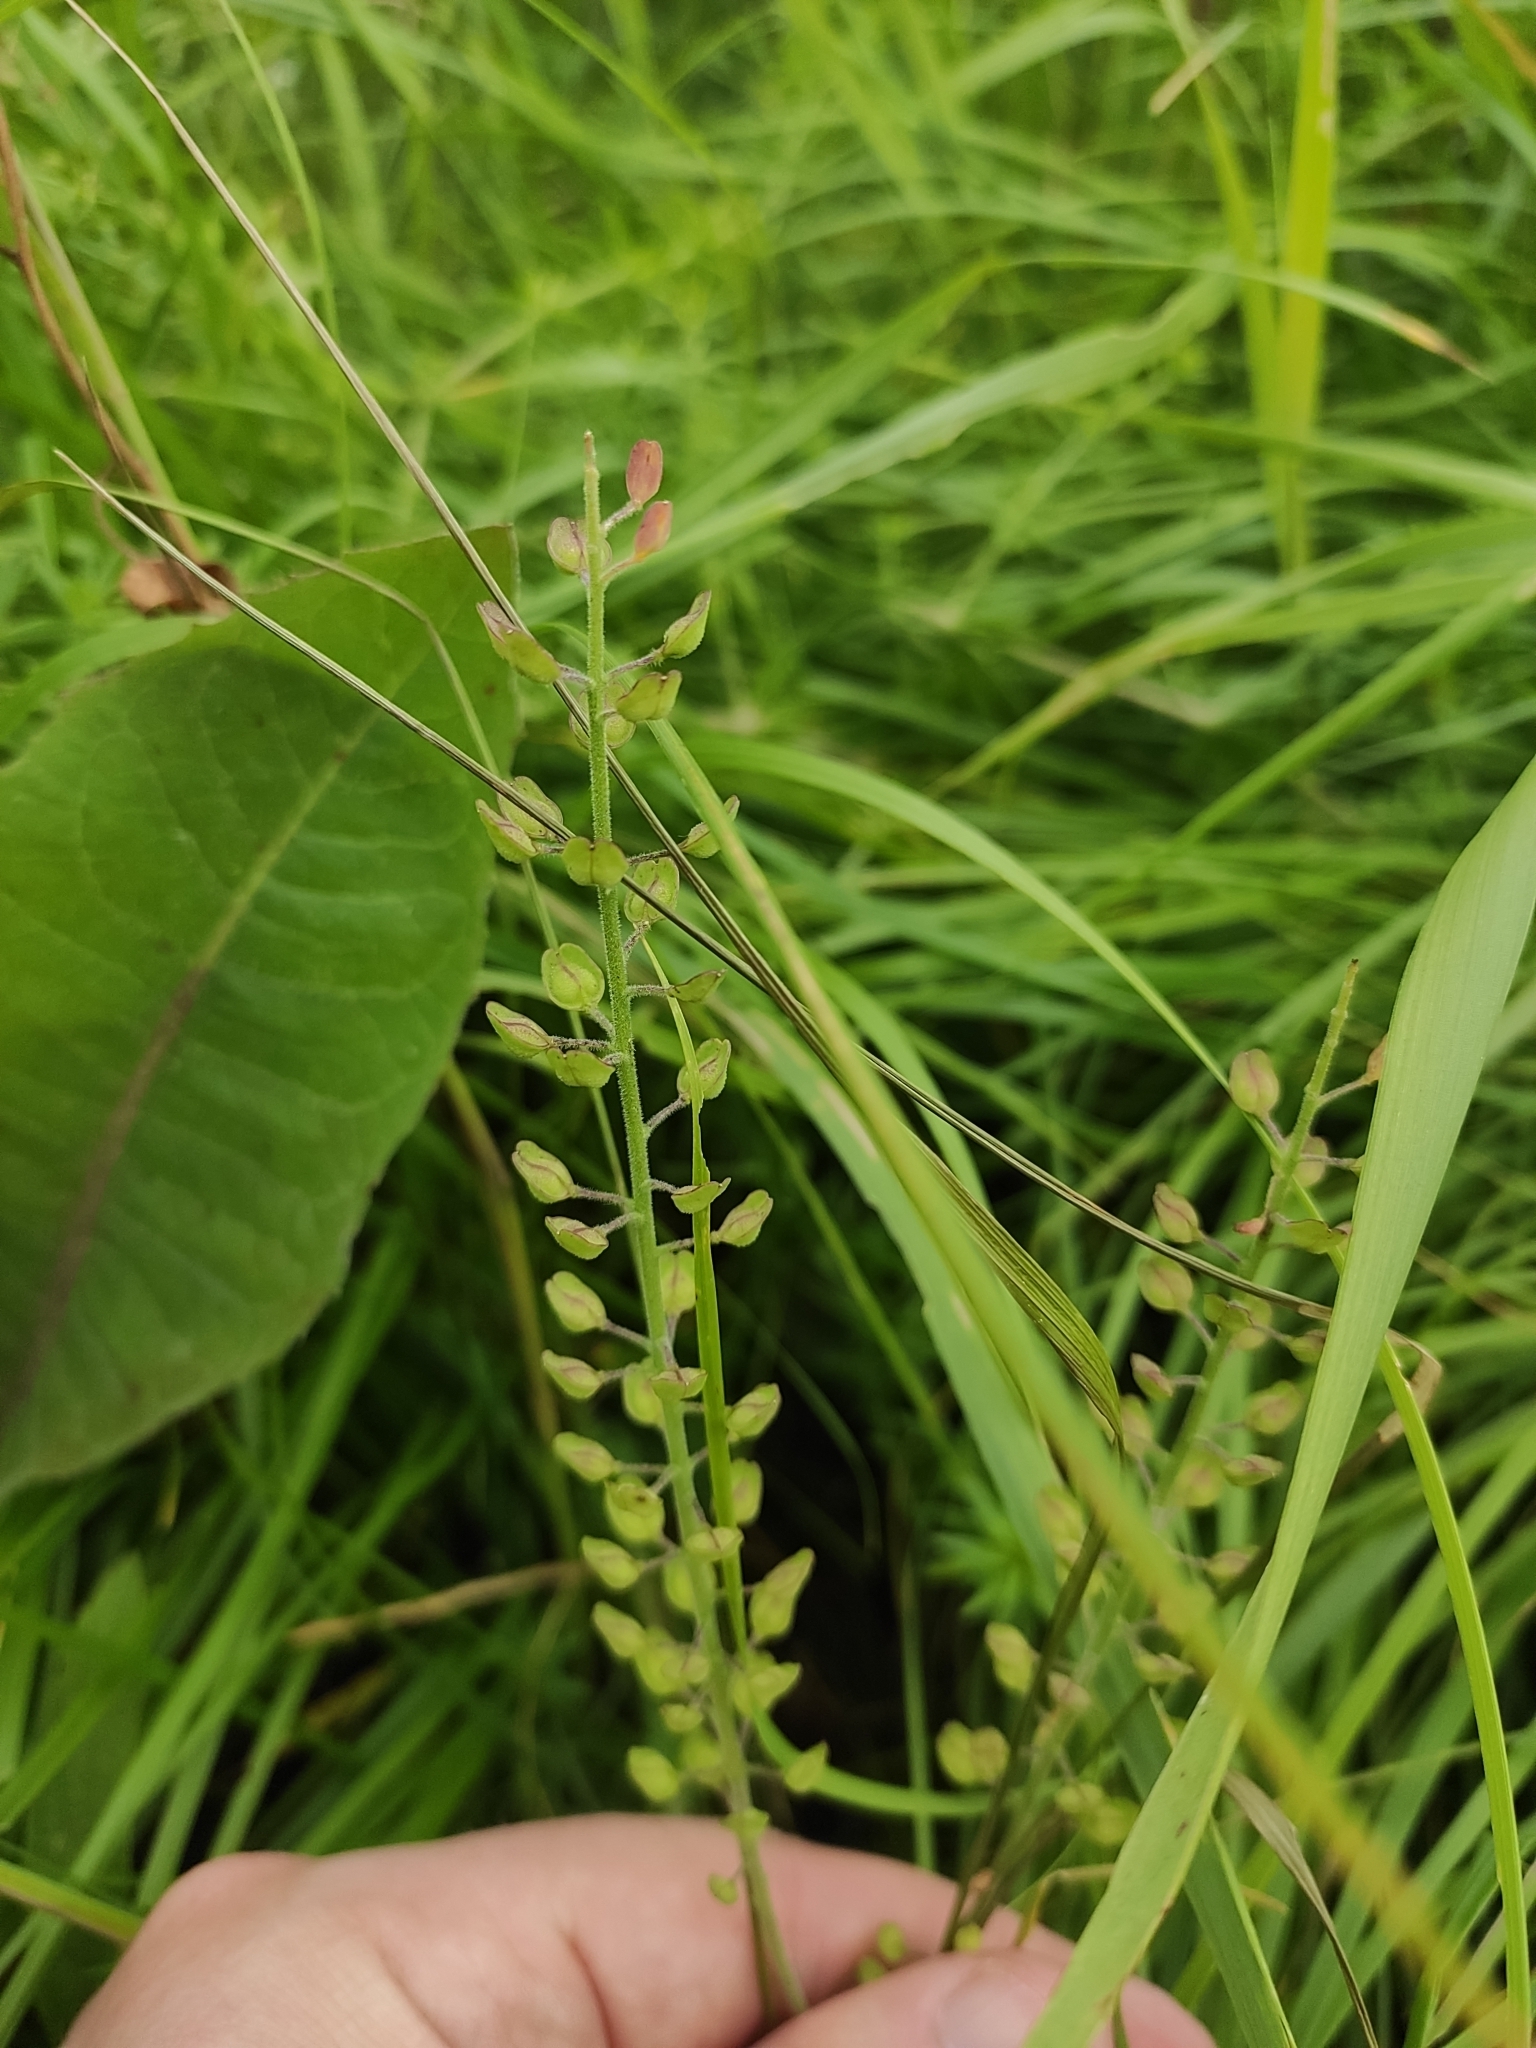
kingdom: Plantae
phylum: Tracheophyta
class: Magnoliopsida
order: Brassicales
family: Brassicaceae
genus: Noccaea
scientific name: Noccaea perfoliata
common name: Perfoliate pennycress
